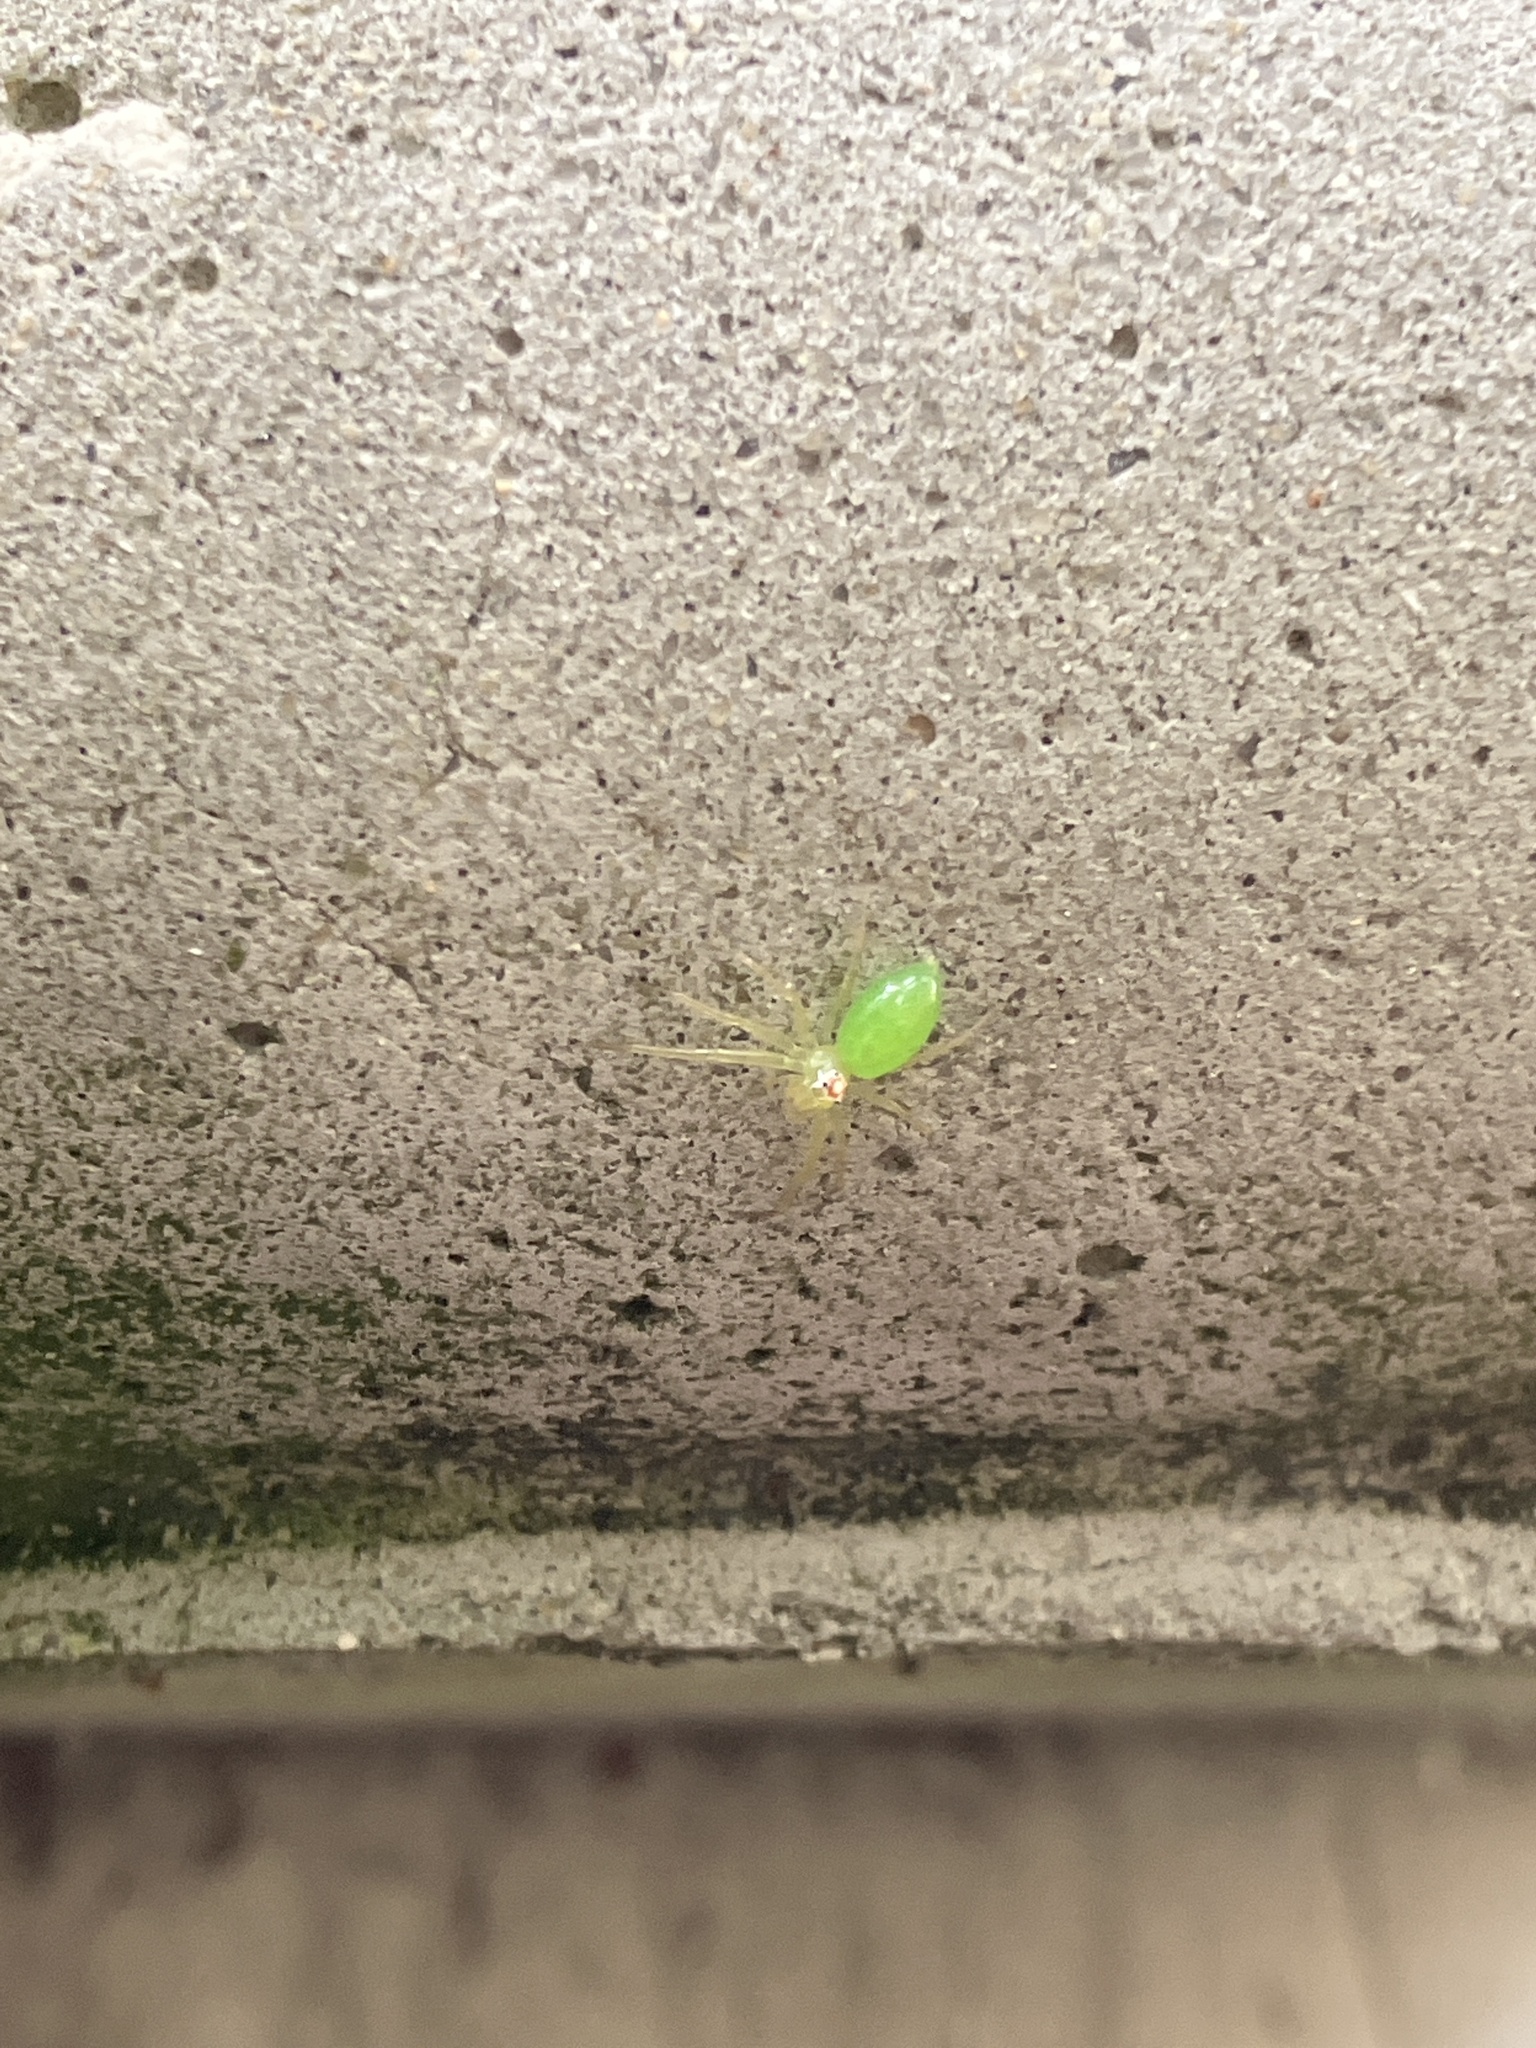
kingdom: Animalia
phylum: Arthropoda
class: Arachnida
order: Araneae
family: Salticidae
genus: Lyssomanes
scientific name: Lyssomanes viridis
